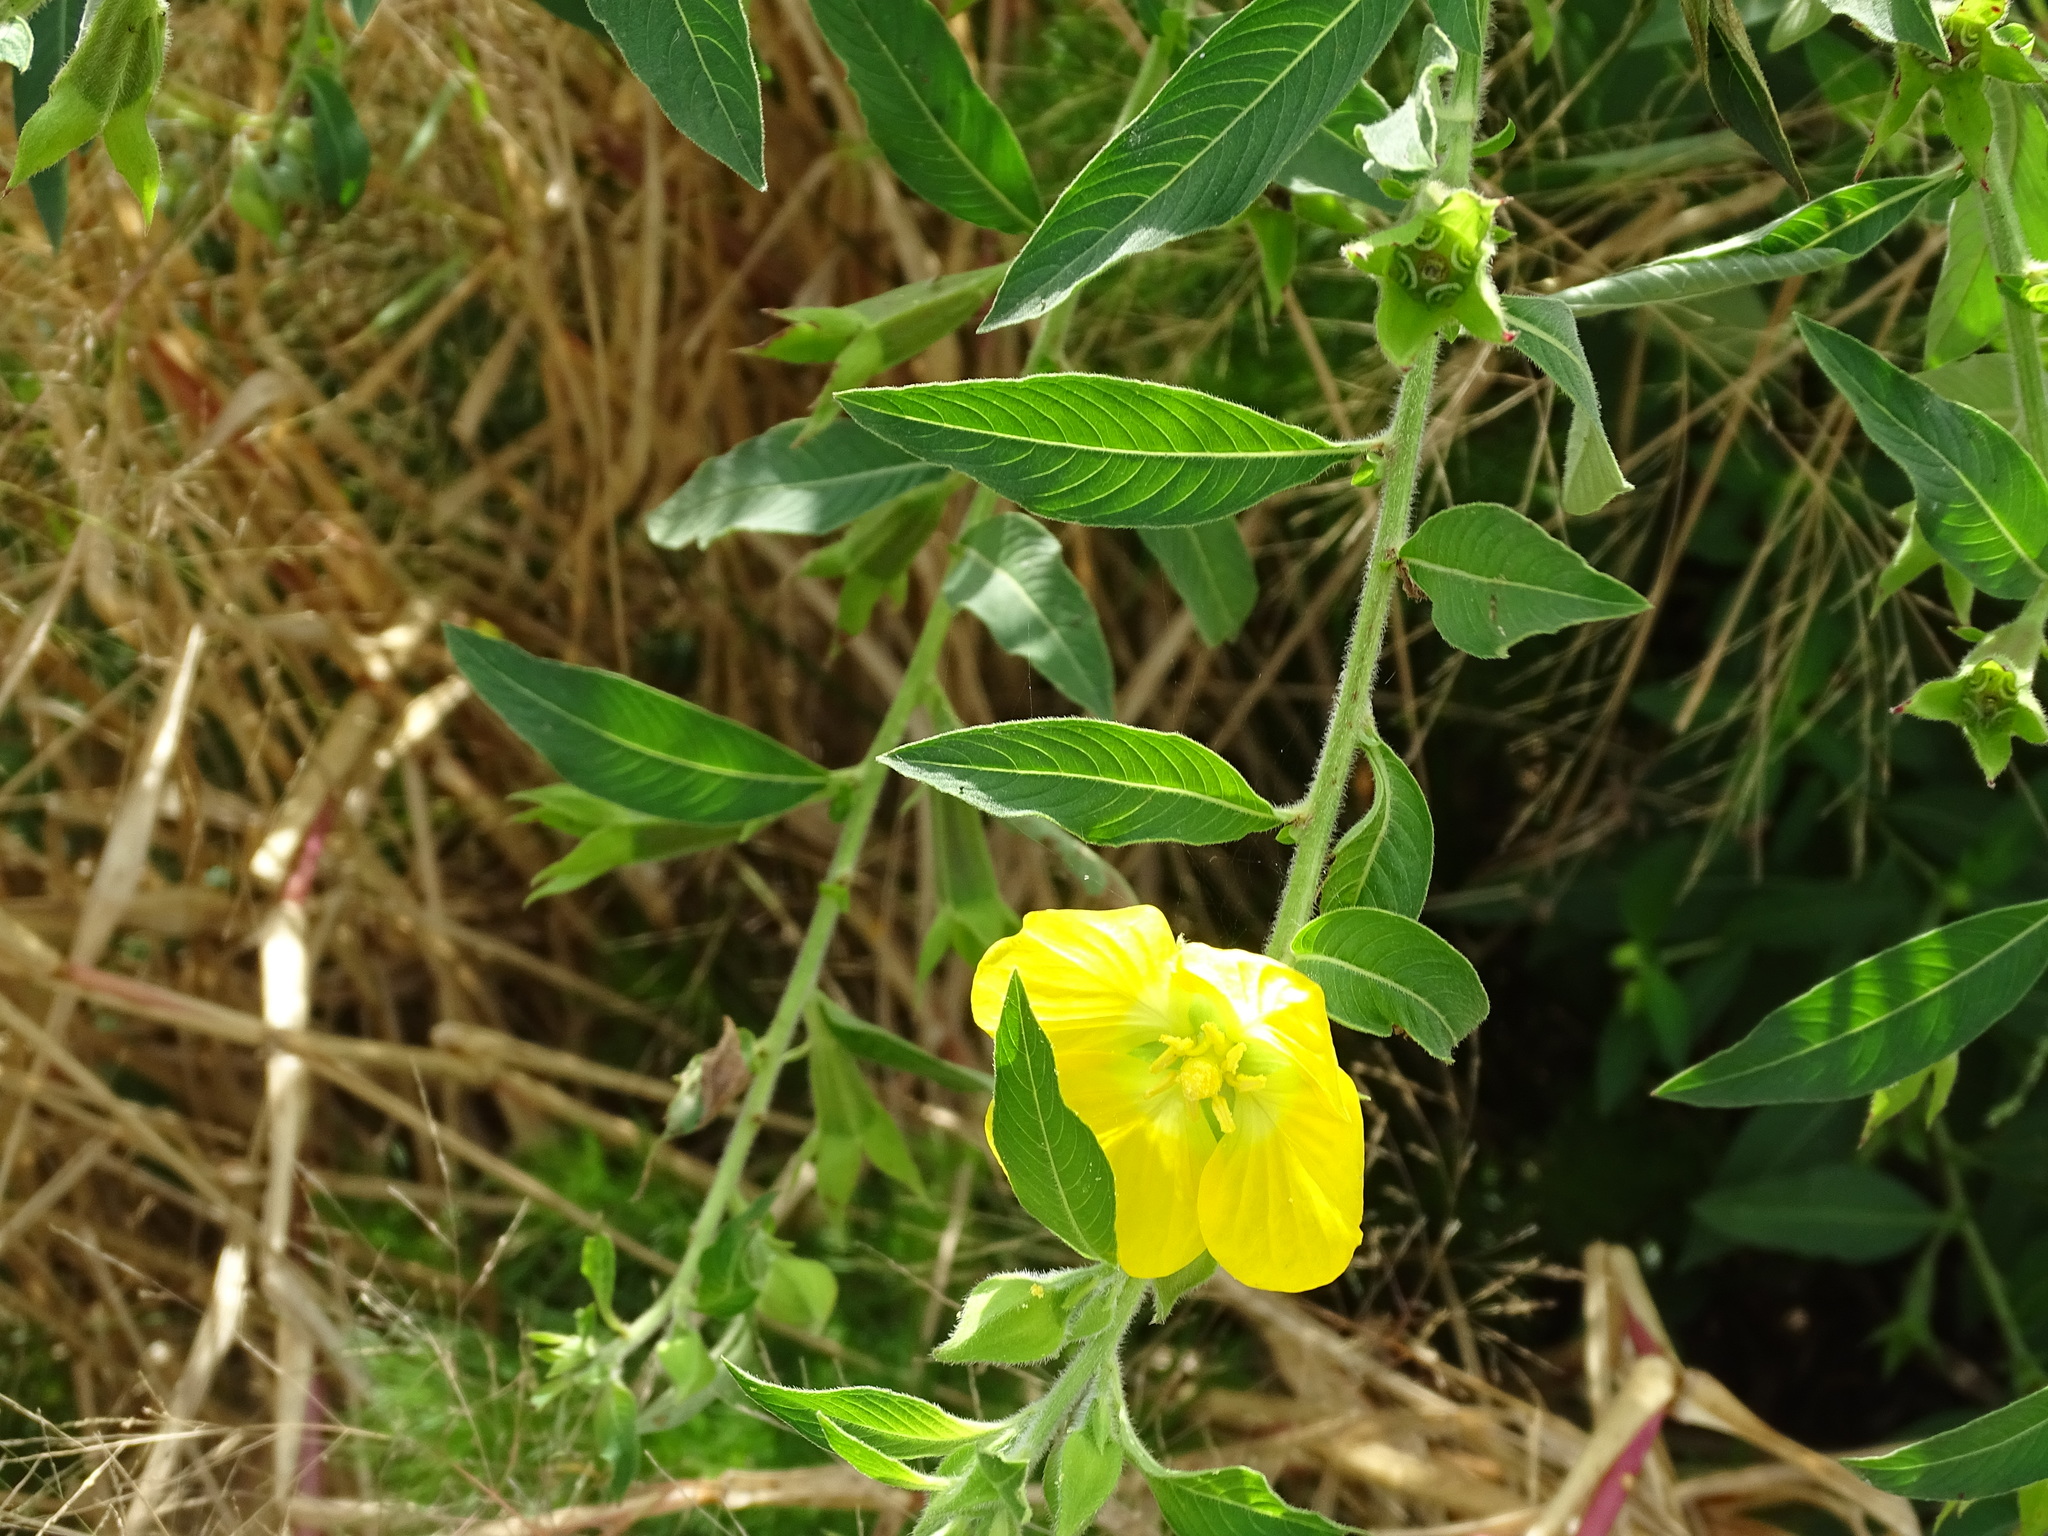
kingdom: Plantae
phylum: Tracheophyta
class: Magnoliopsida
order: Myrtales
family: Onagraceae
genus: Ludwigia
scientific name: Ludwigia peruviana
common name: Peruvian primrose-willow
